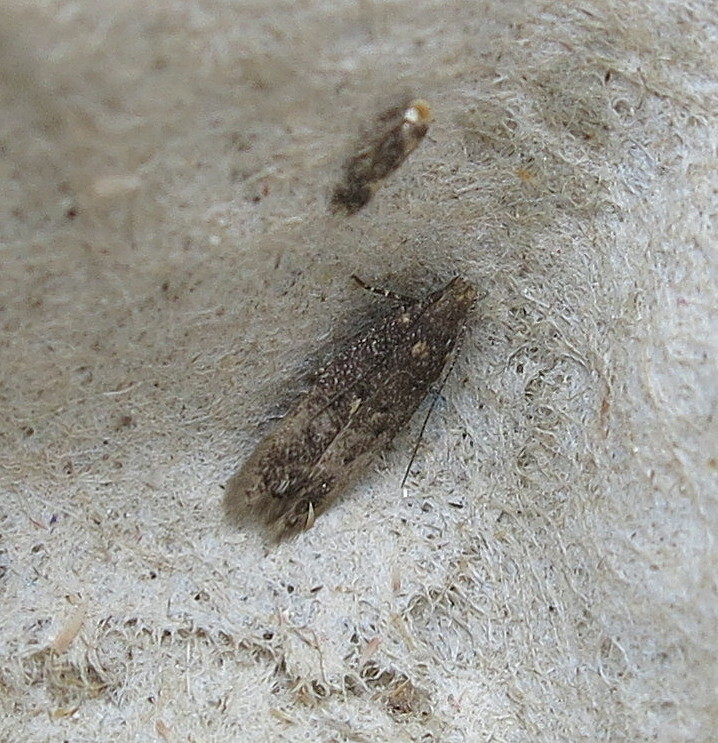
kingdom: Animalia
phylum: Arthropoda
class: Insecta
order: Lepidoptera
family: Gelechiidae
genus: Bryotropha
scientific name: Bryotropha affinis
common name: Dark groundling
